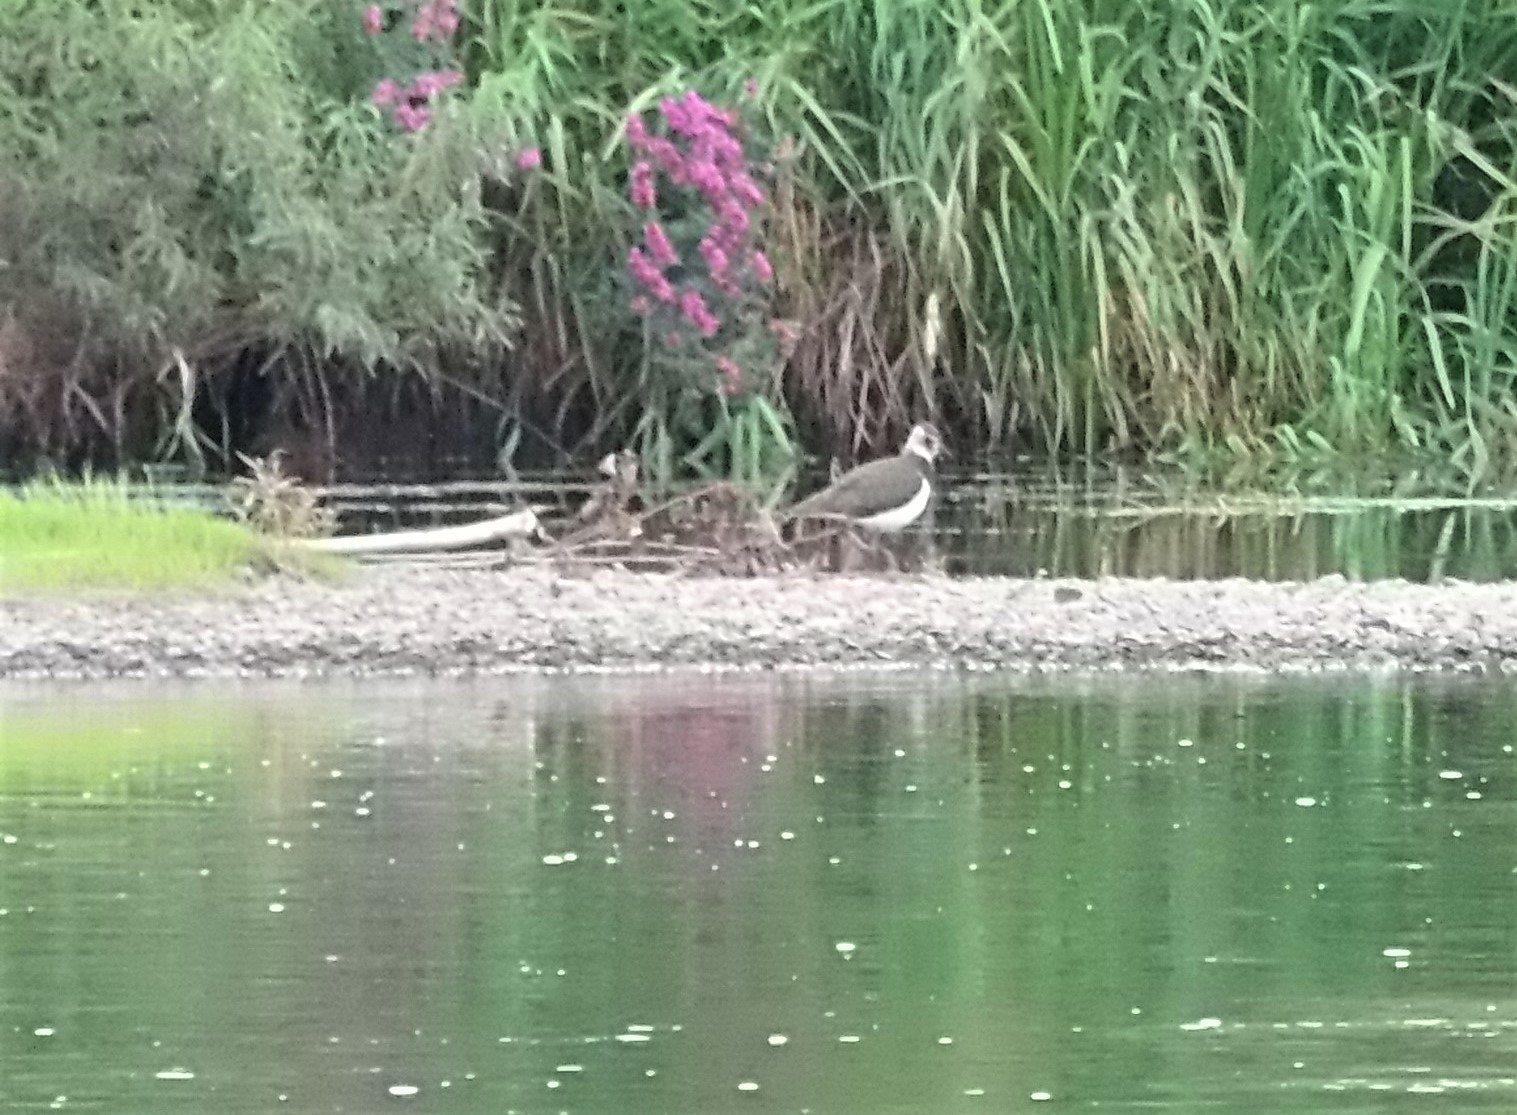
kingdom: Animalia
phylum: Chordata
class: Aves
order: Charadriiformes
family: Charadriidae
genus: Vanellus
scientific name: Vanellus vanellus
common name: Northern lapwing
